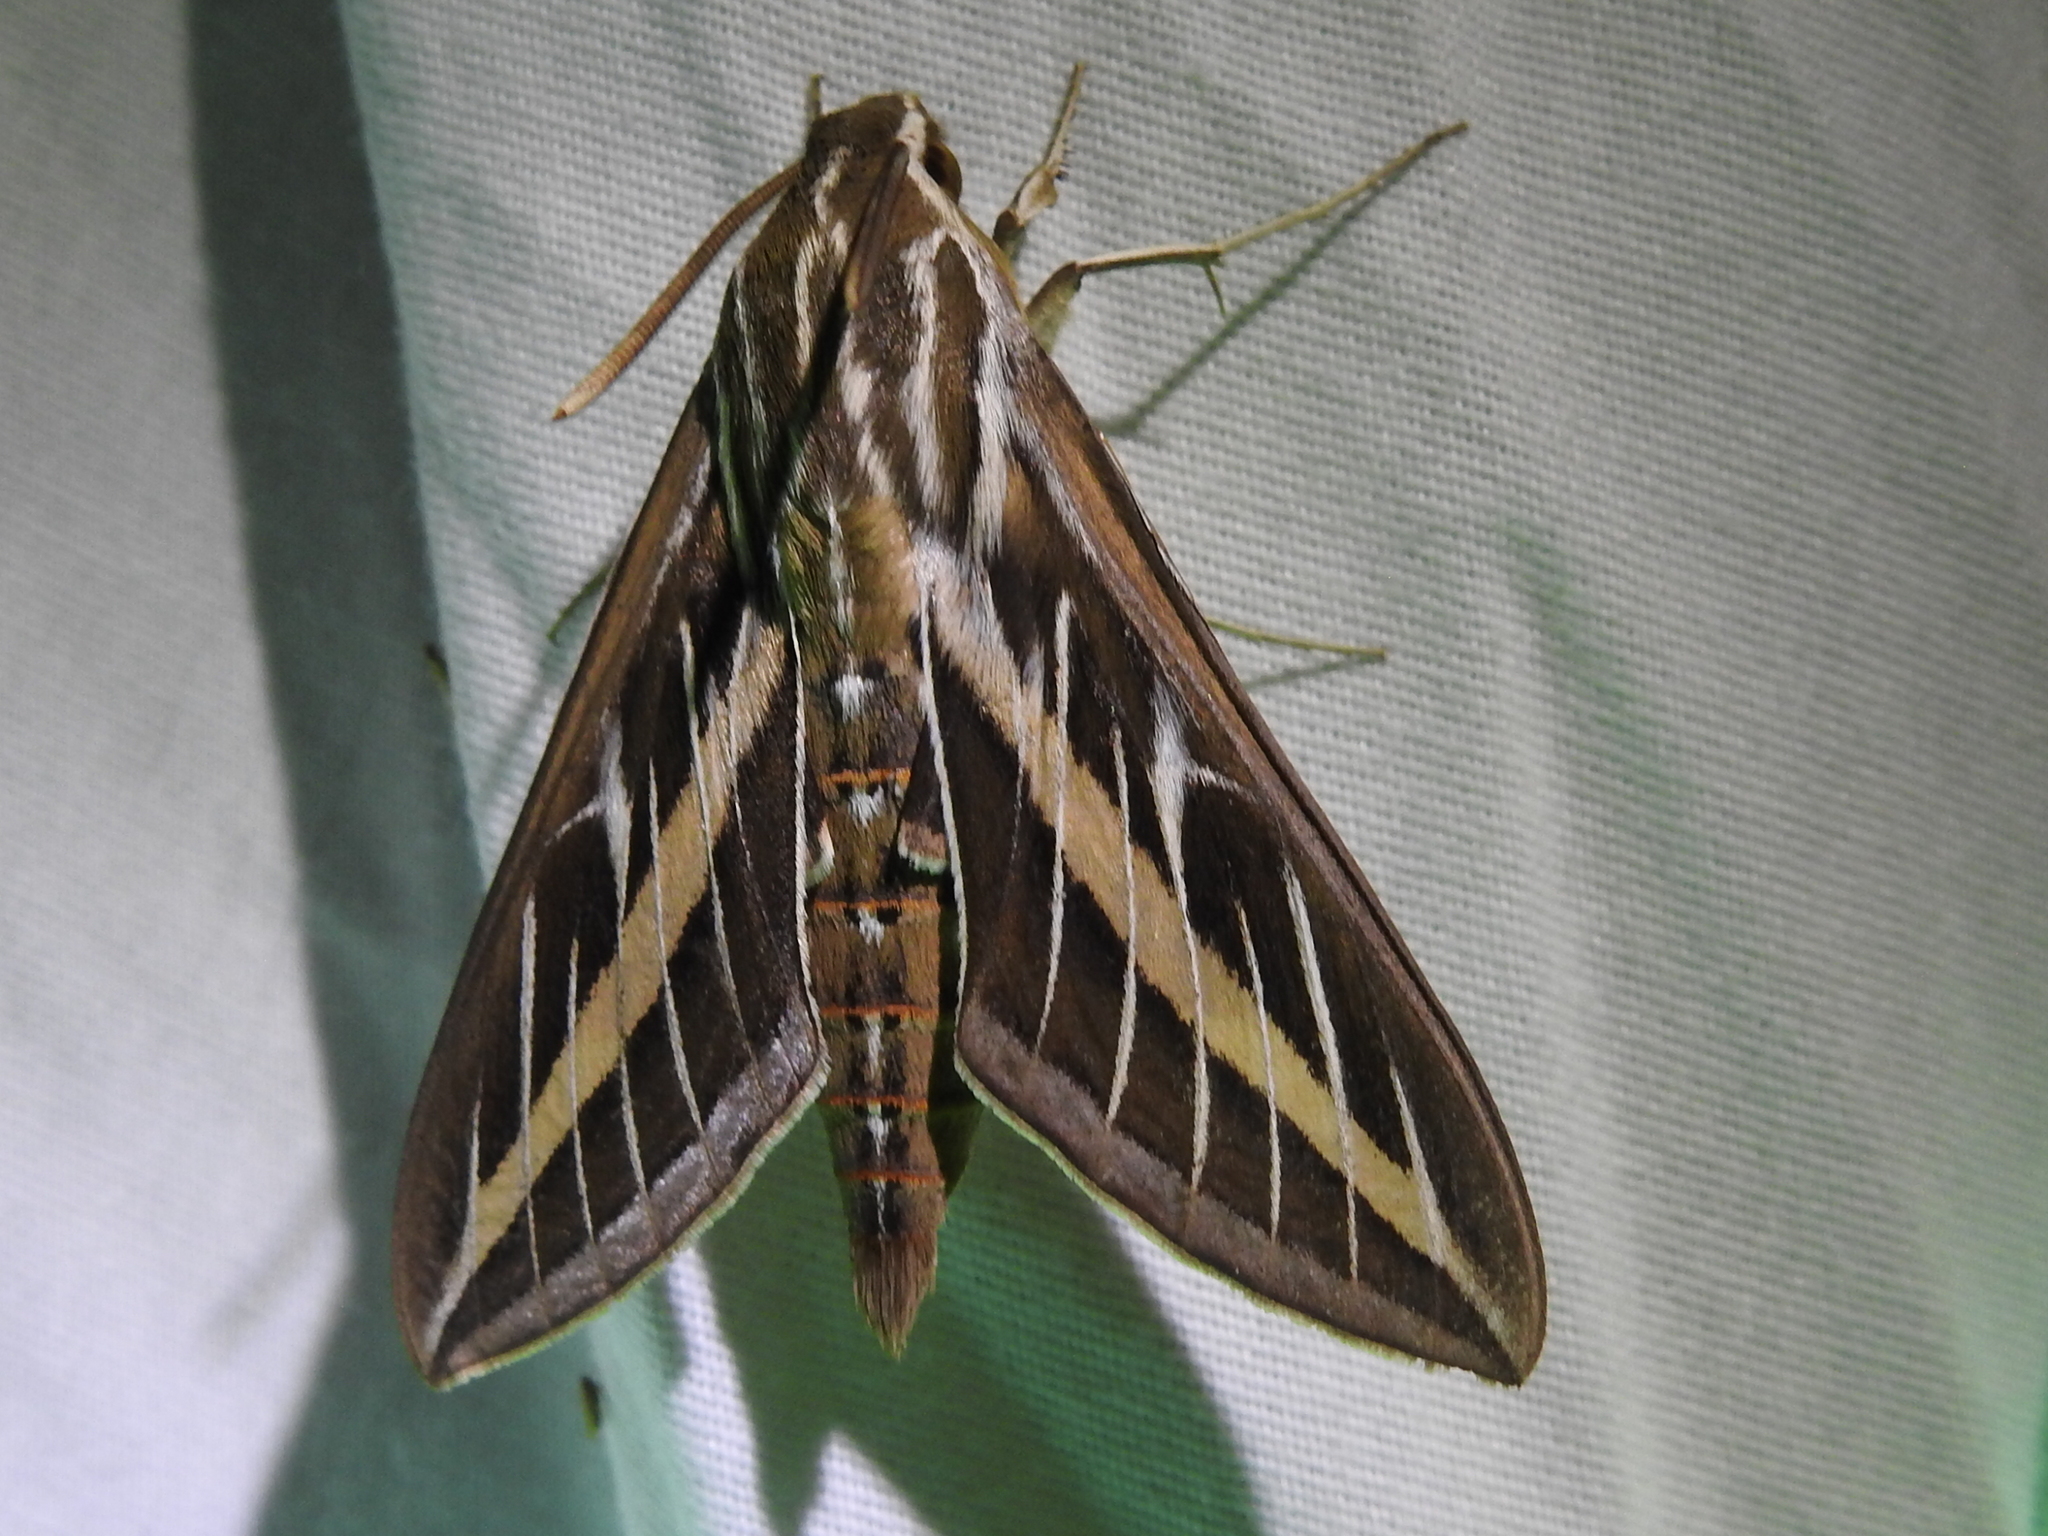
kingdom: Animalia
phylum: Arthropoda
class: Insecta
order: Lepidoptera
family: Sphingidae
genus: Hyles
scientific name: Hyles lineata
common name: White-lined sphinx
